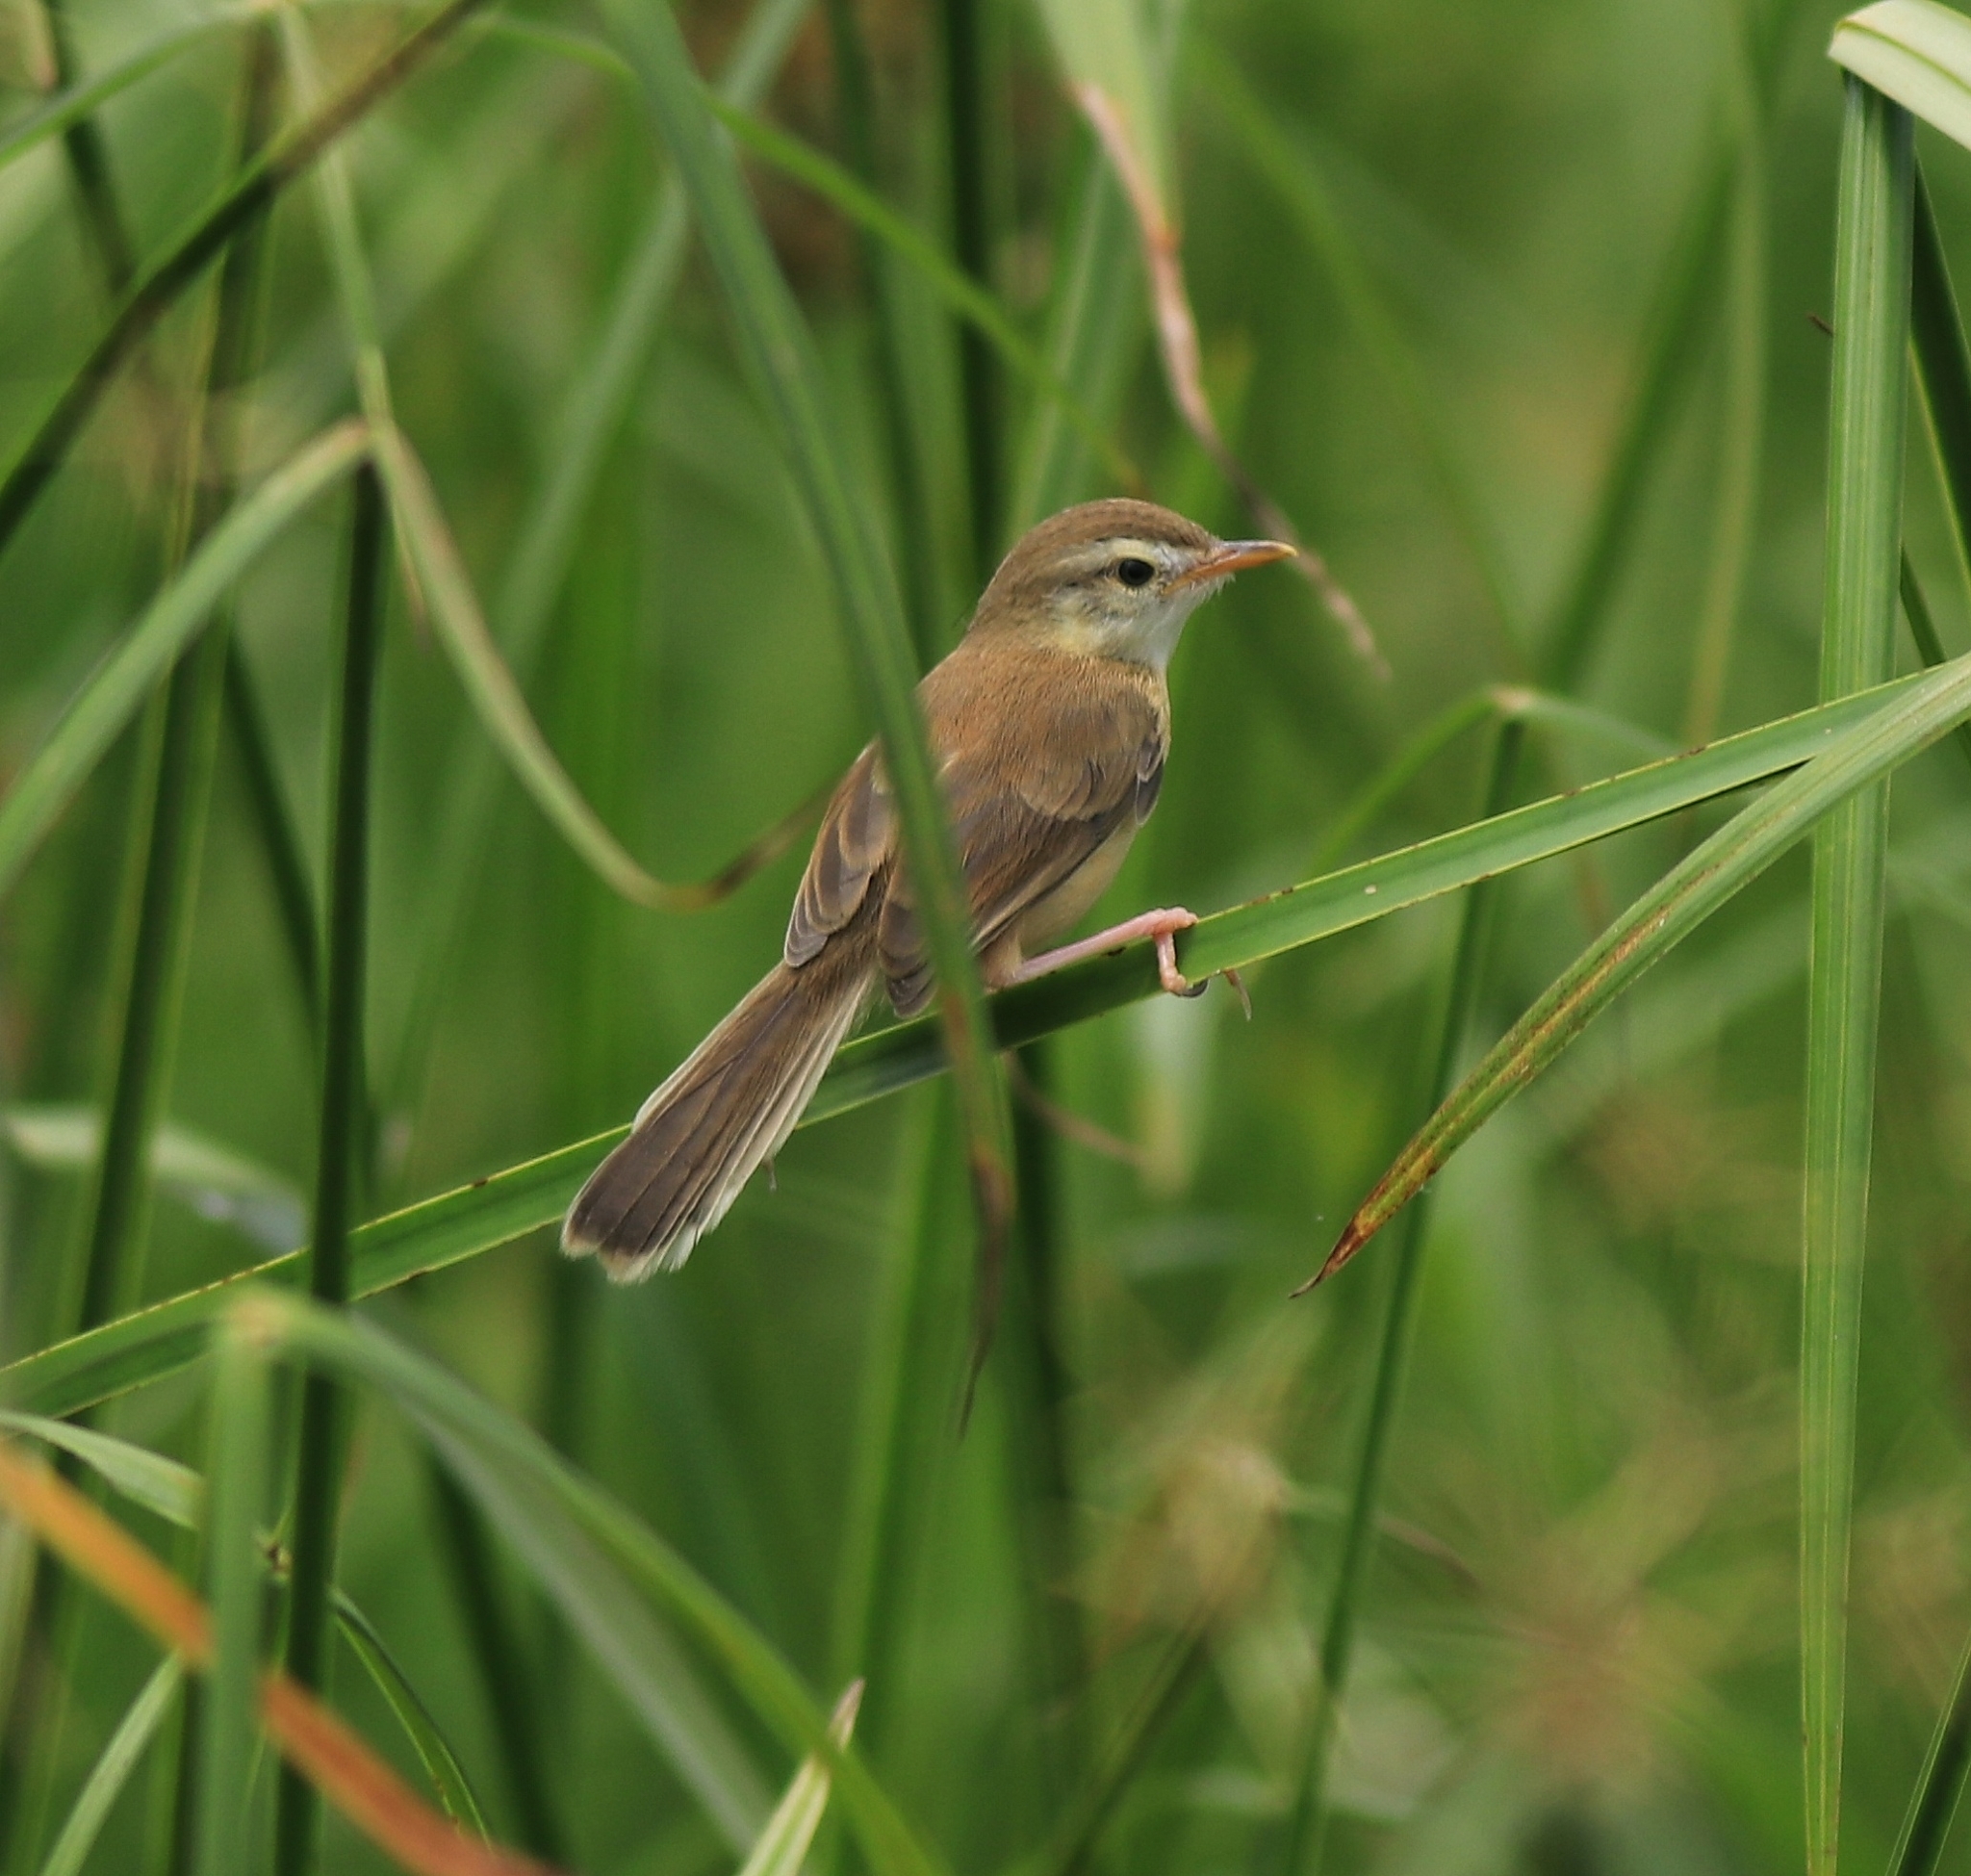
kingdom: Animalia
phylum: Chordata
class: Aves
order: Passeriformes
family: Cisticolidae
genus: Prinia
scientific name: Prinia inornata
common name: Plain prinia
